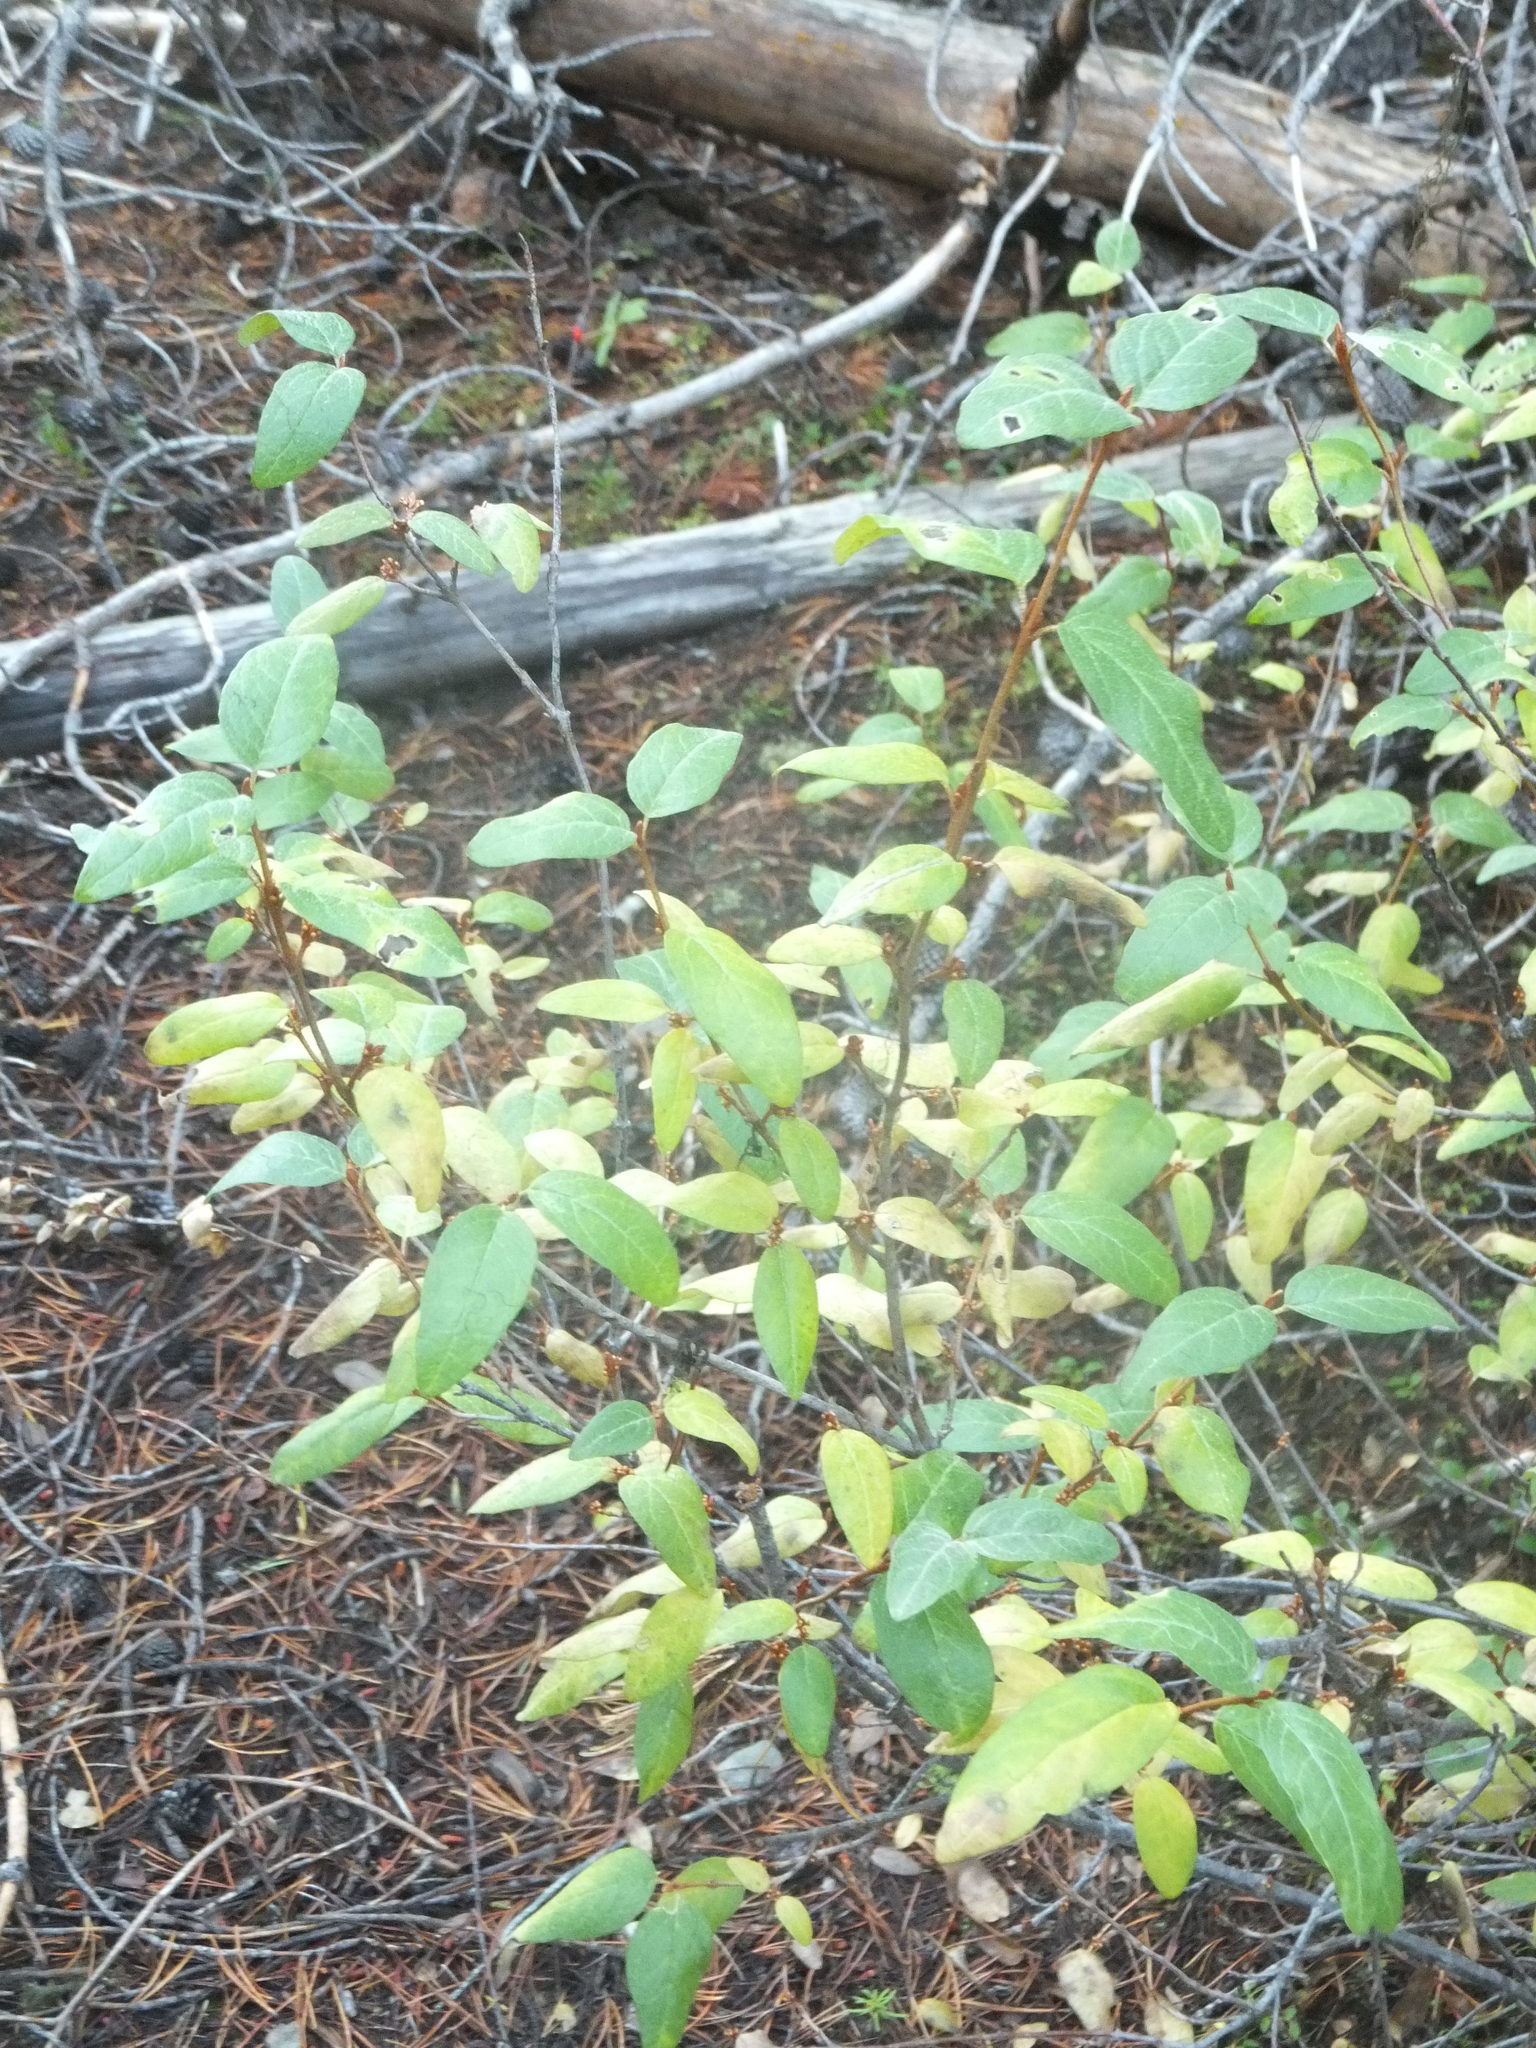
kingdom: Plantae
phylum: Tracheophyta
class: Magnoliopsida
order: Rosales
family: Elaeagnaceae
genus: Shepherdia
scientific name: Shepherdia canadensis
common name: Soapberry
